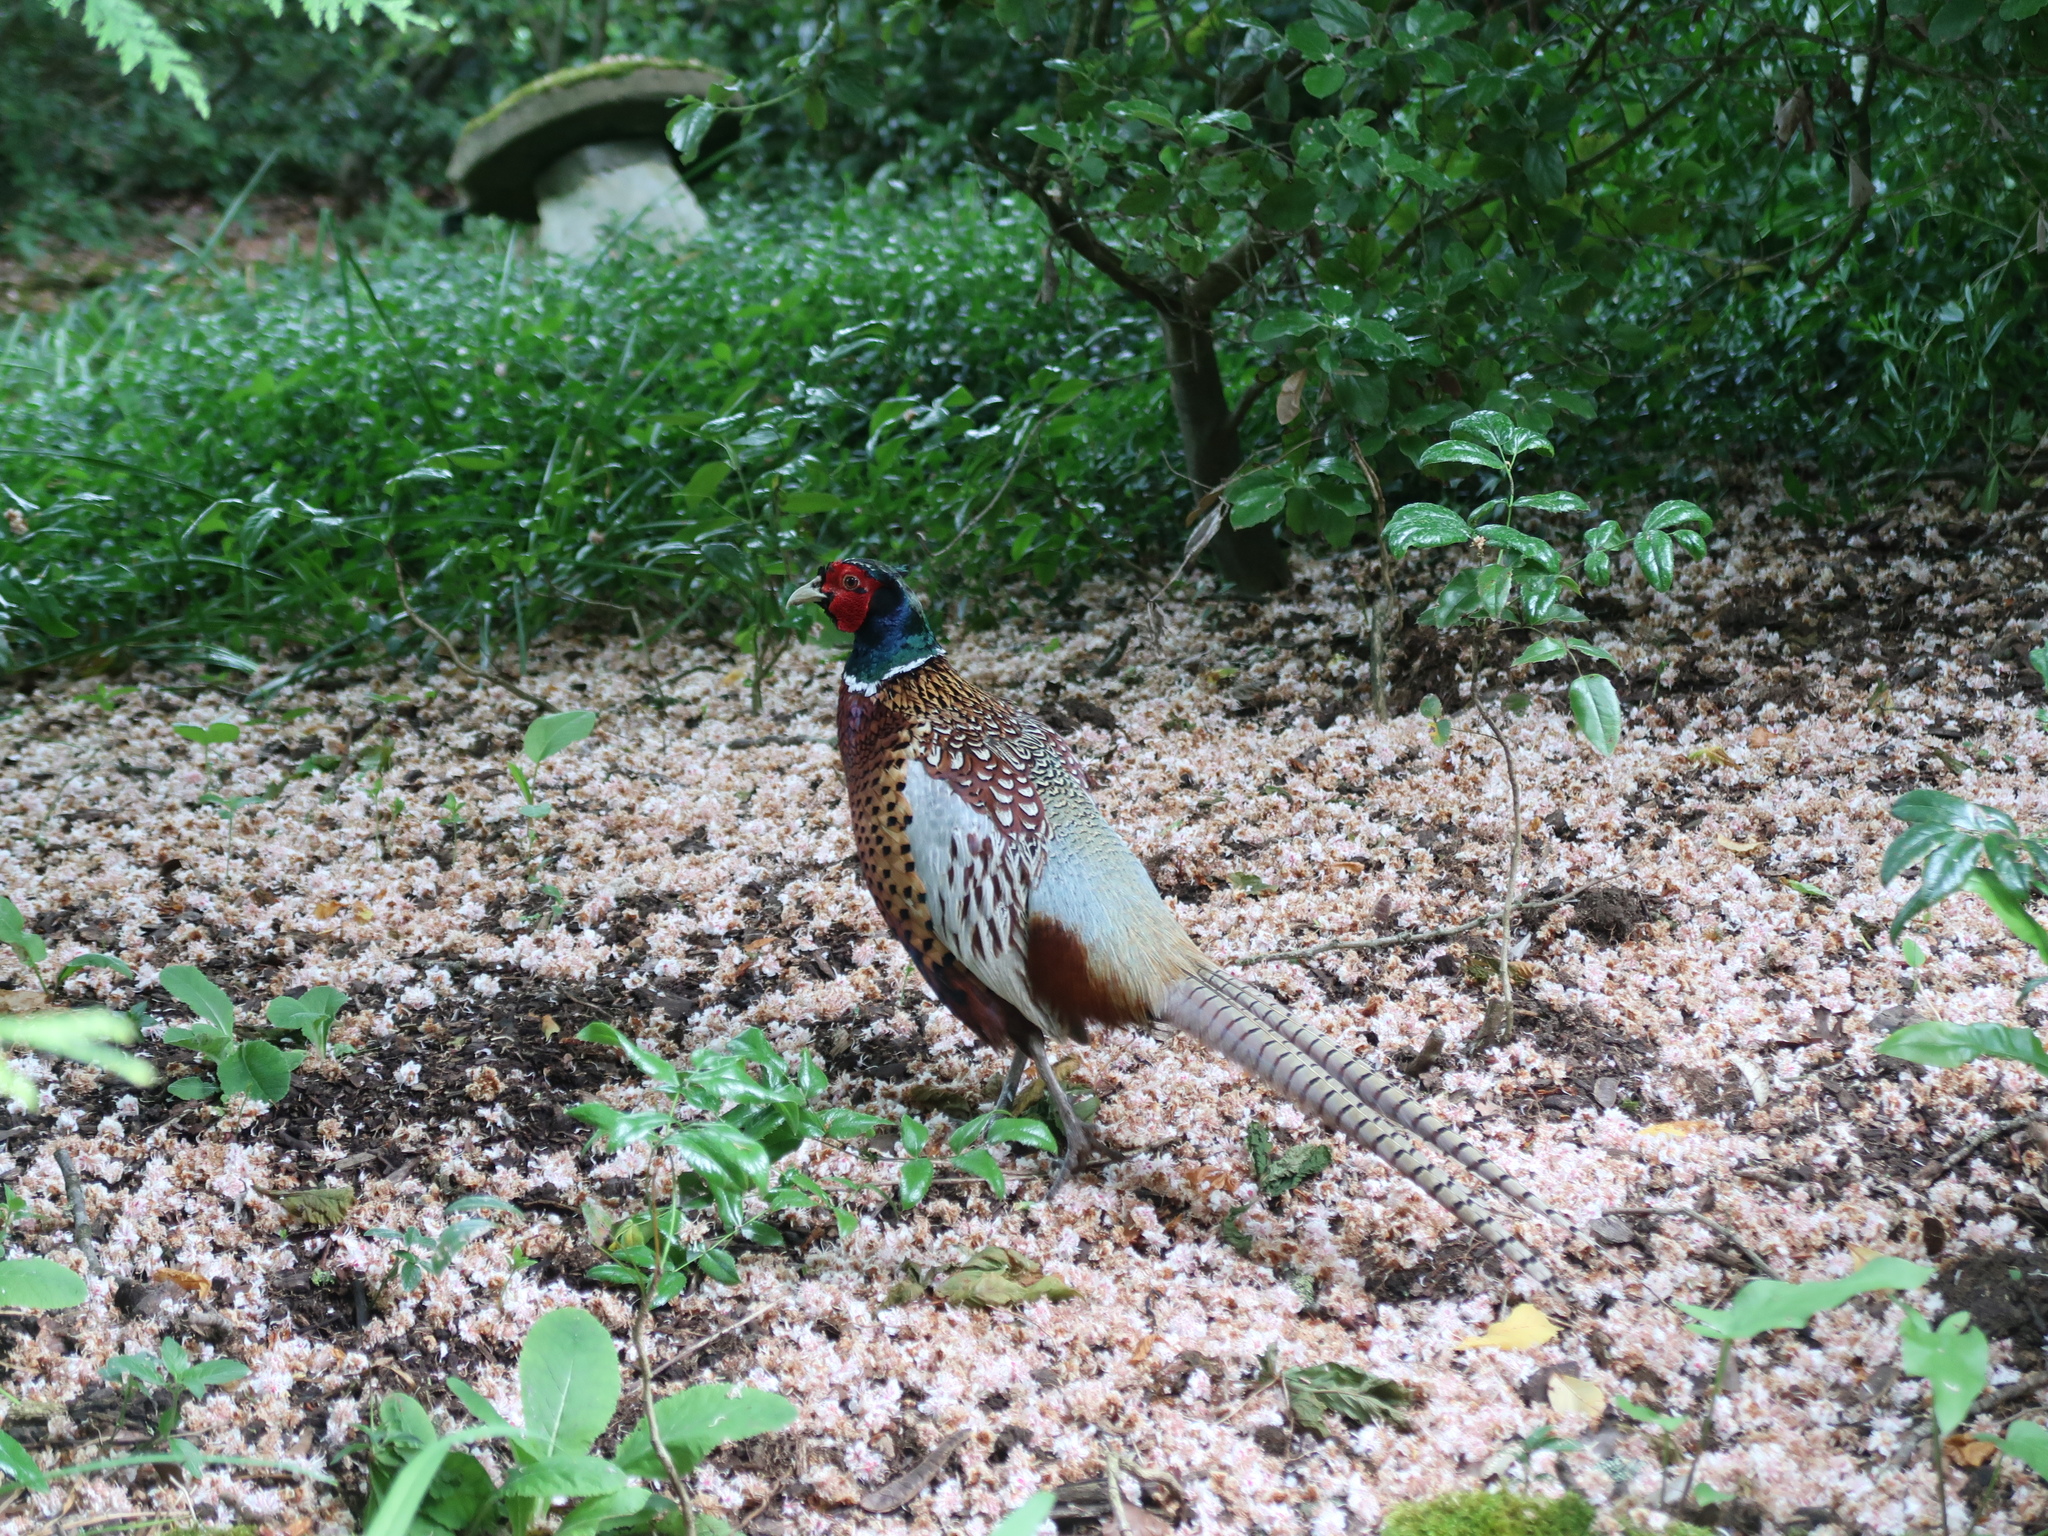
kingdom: Animalia
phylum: Chordata
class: Aves
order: Galliformes
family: Phasianidae
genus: Phasianus
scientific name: Phasianus colchicus
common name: Common pheasant
